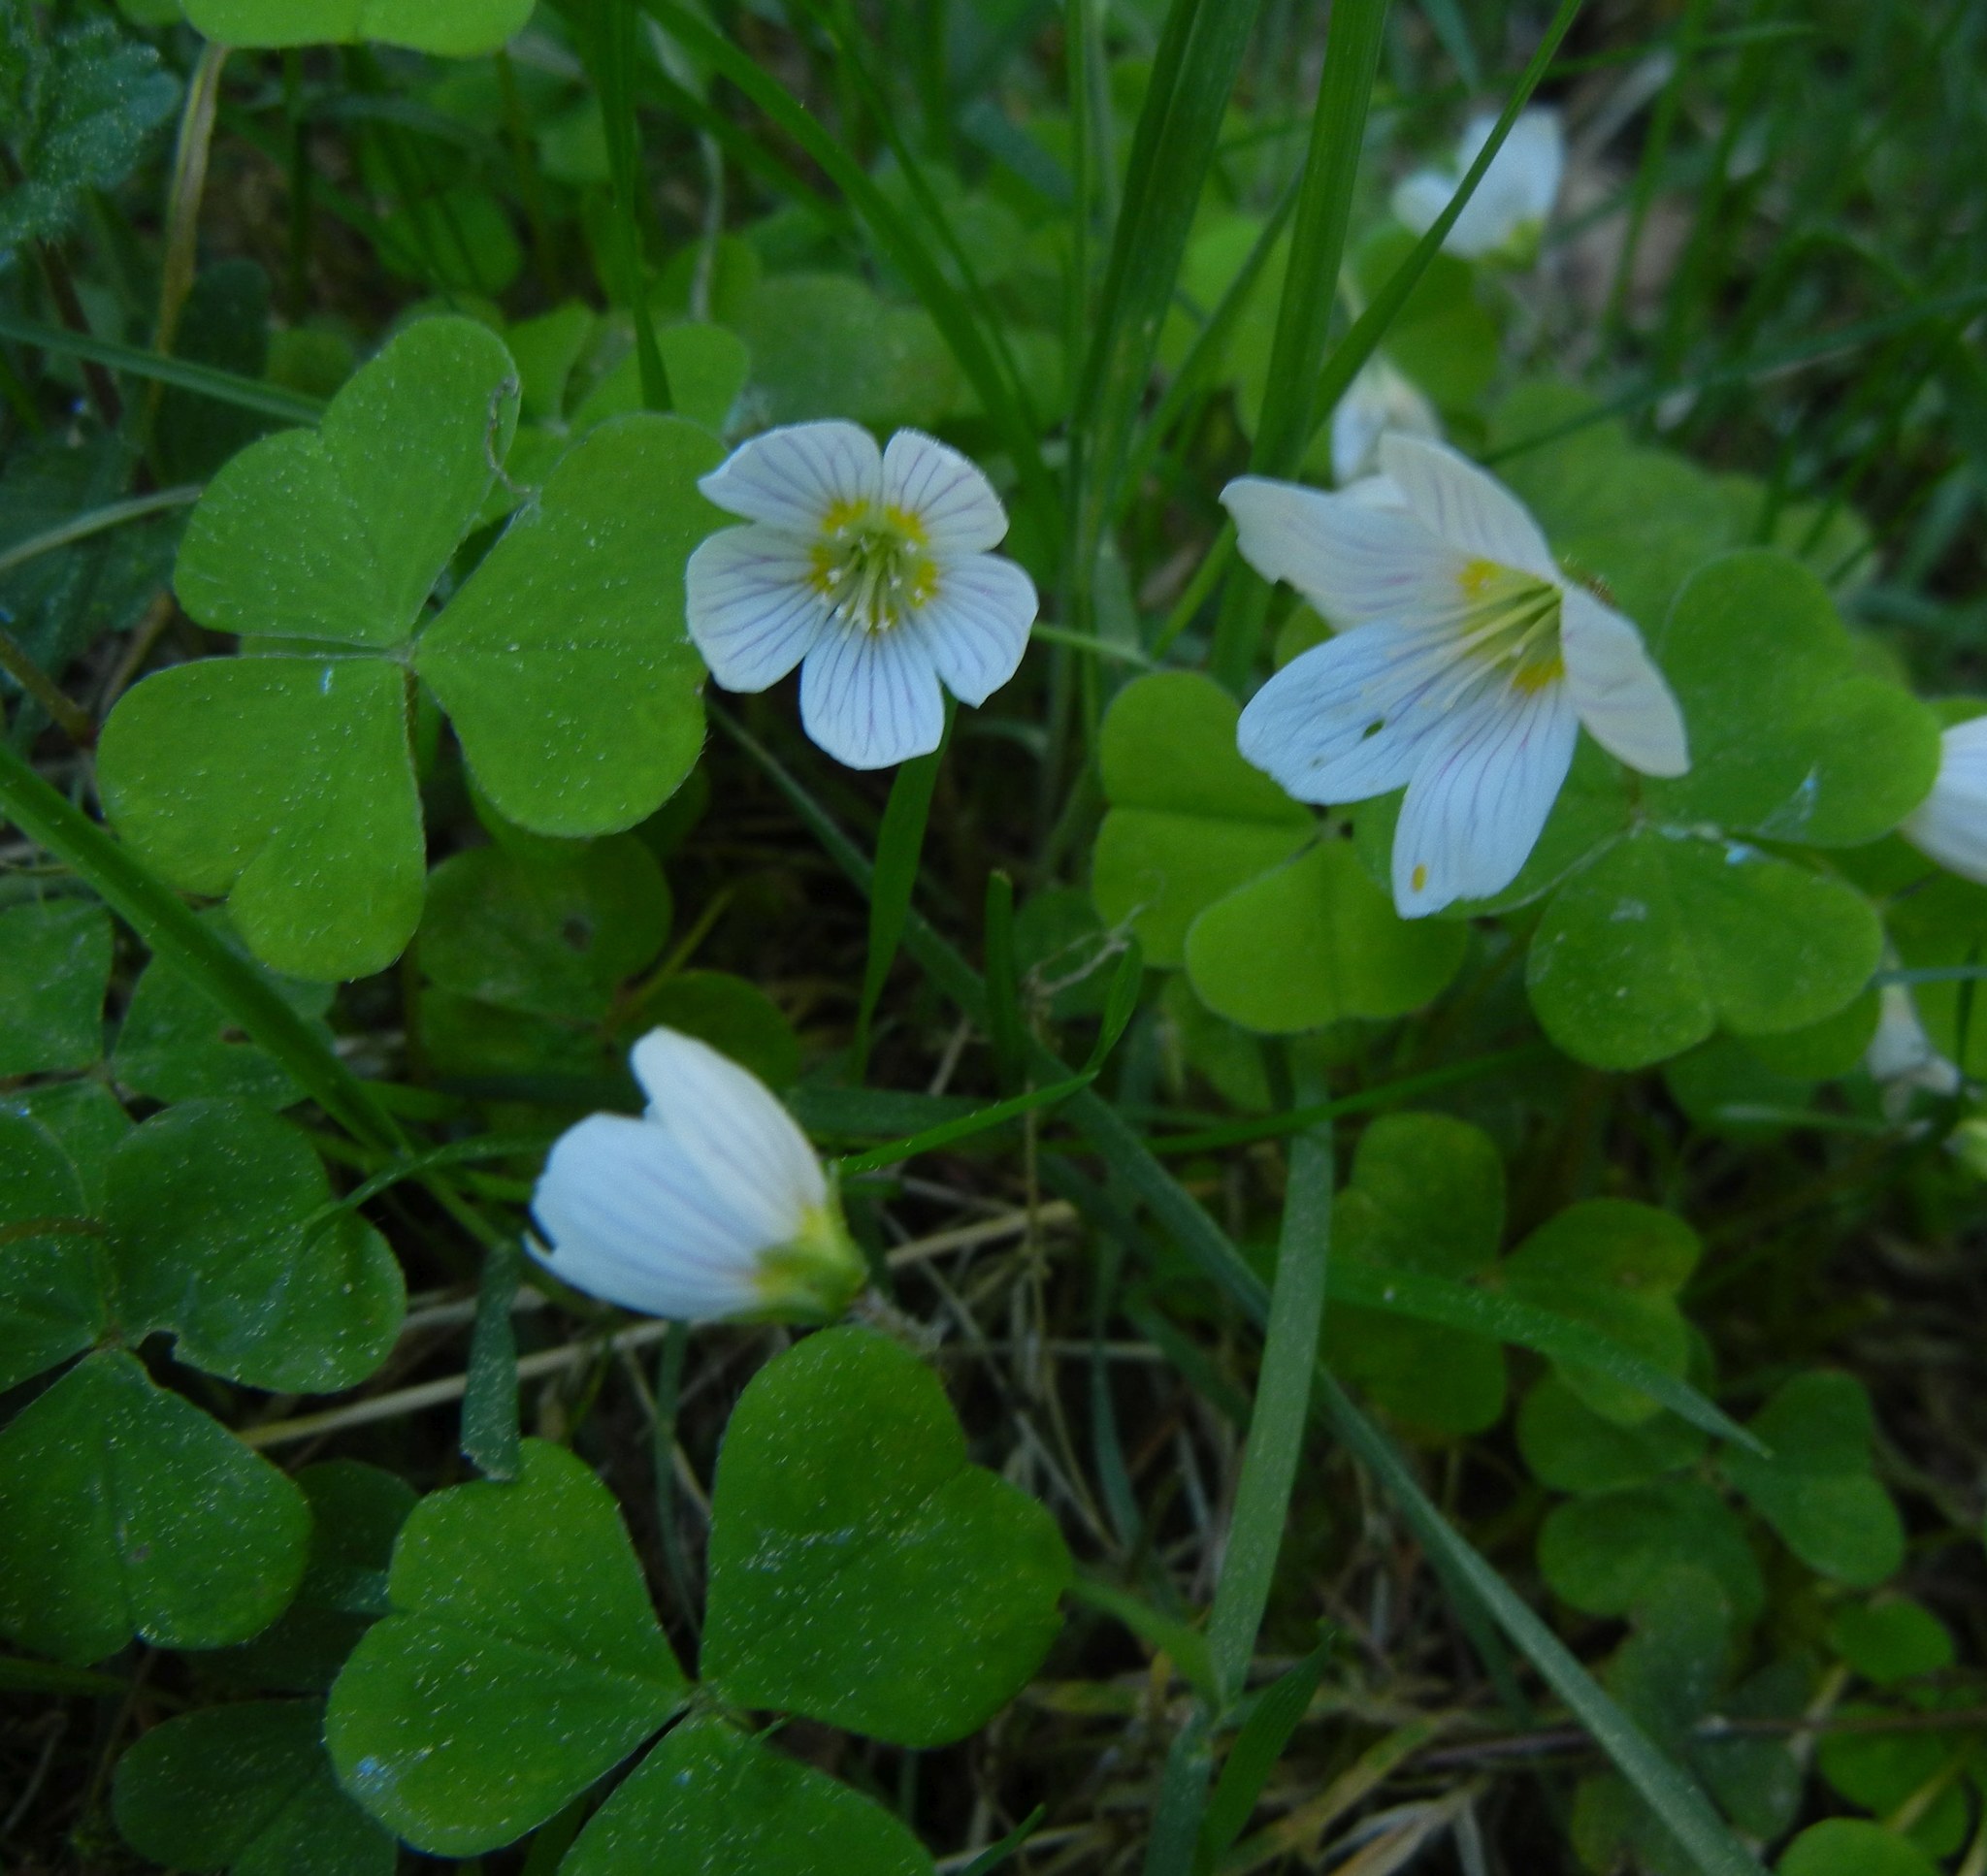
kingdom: Plantae
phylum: Tracheophyta
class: Magnoliopsida
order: Oxalidales
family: Oxalidaceae
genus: Oxalis
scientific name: Oxalis acetosella
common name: Wood-sorrel
